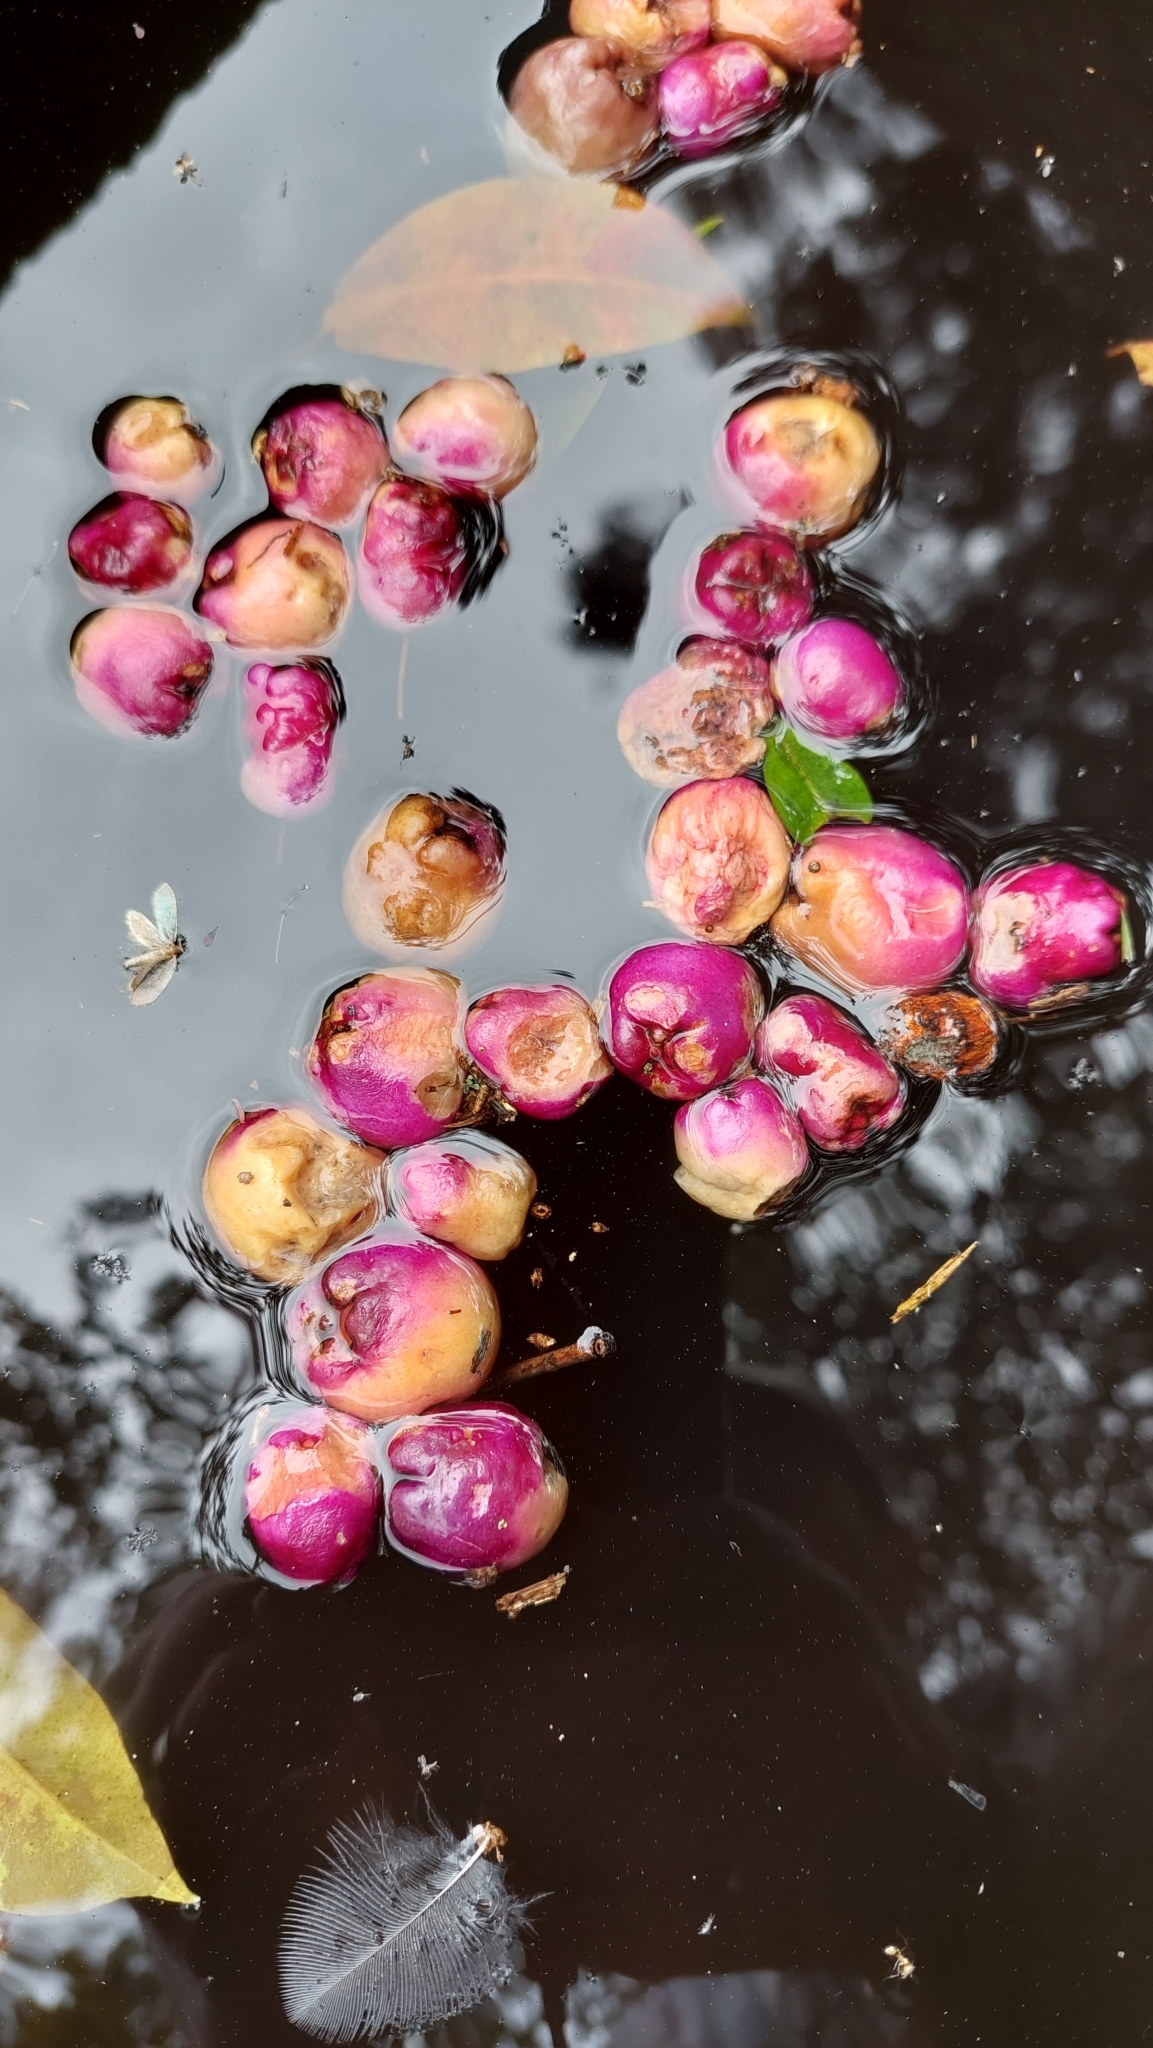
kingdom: Plantae
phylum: Tracheophyta
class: Magnoliopsida
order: Myrtales
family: Myrtaceae
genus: Syzygium
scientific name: Syzygium paniculatum
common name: Magenta lilly-pilly
